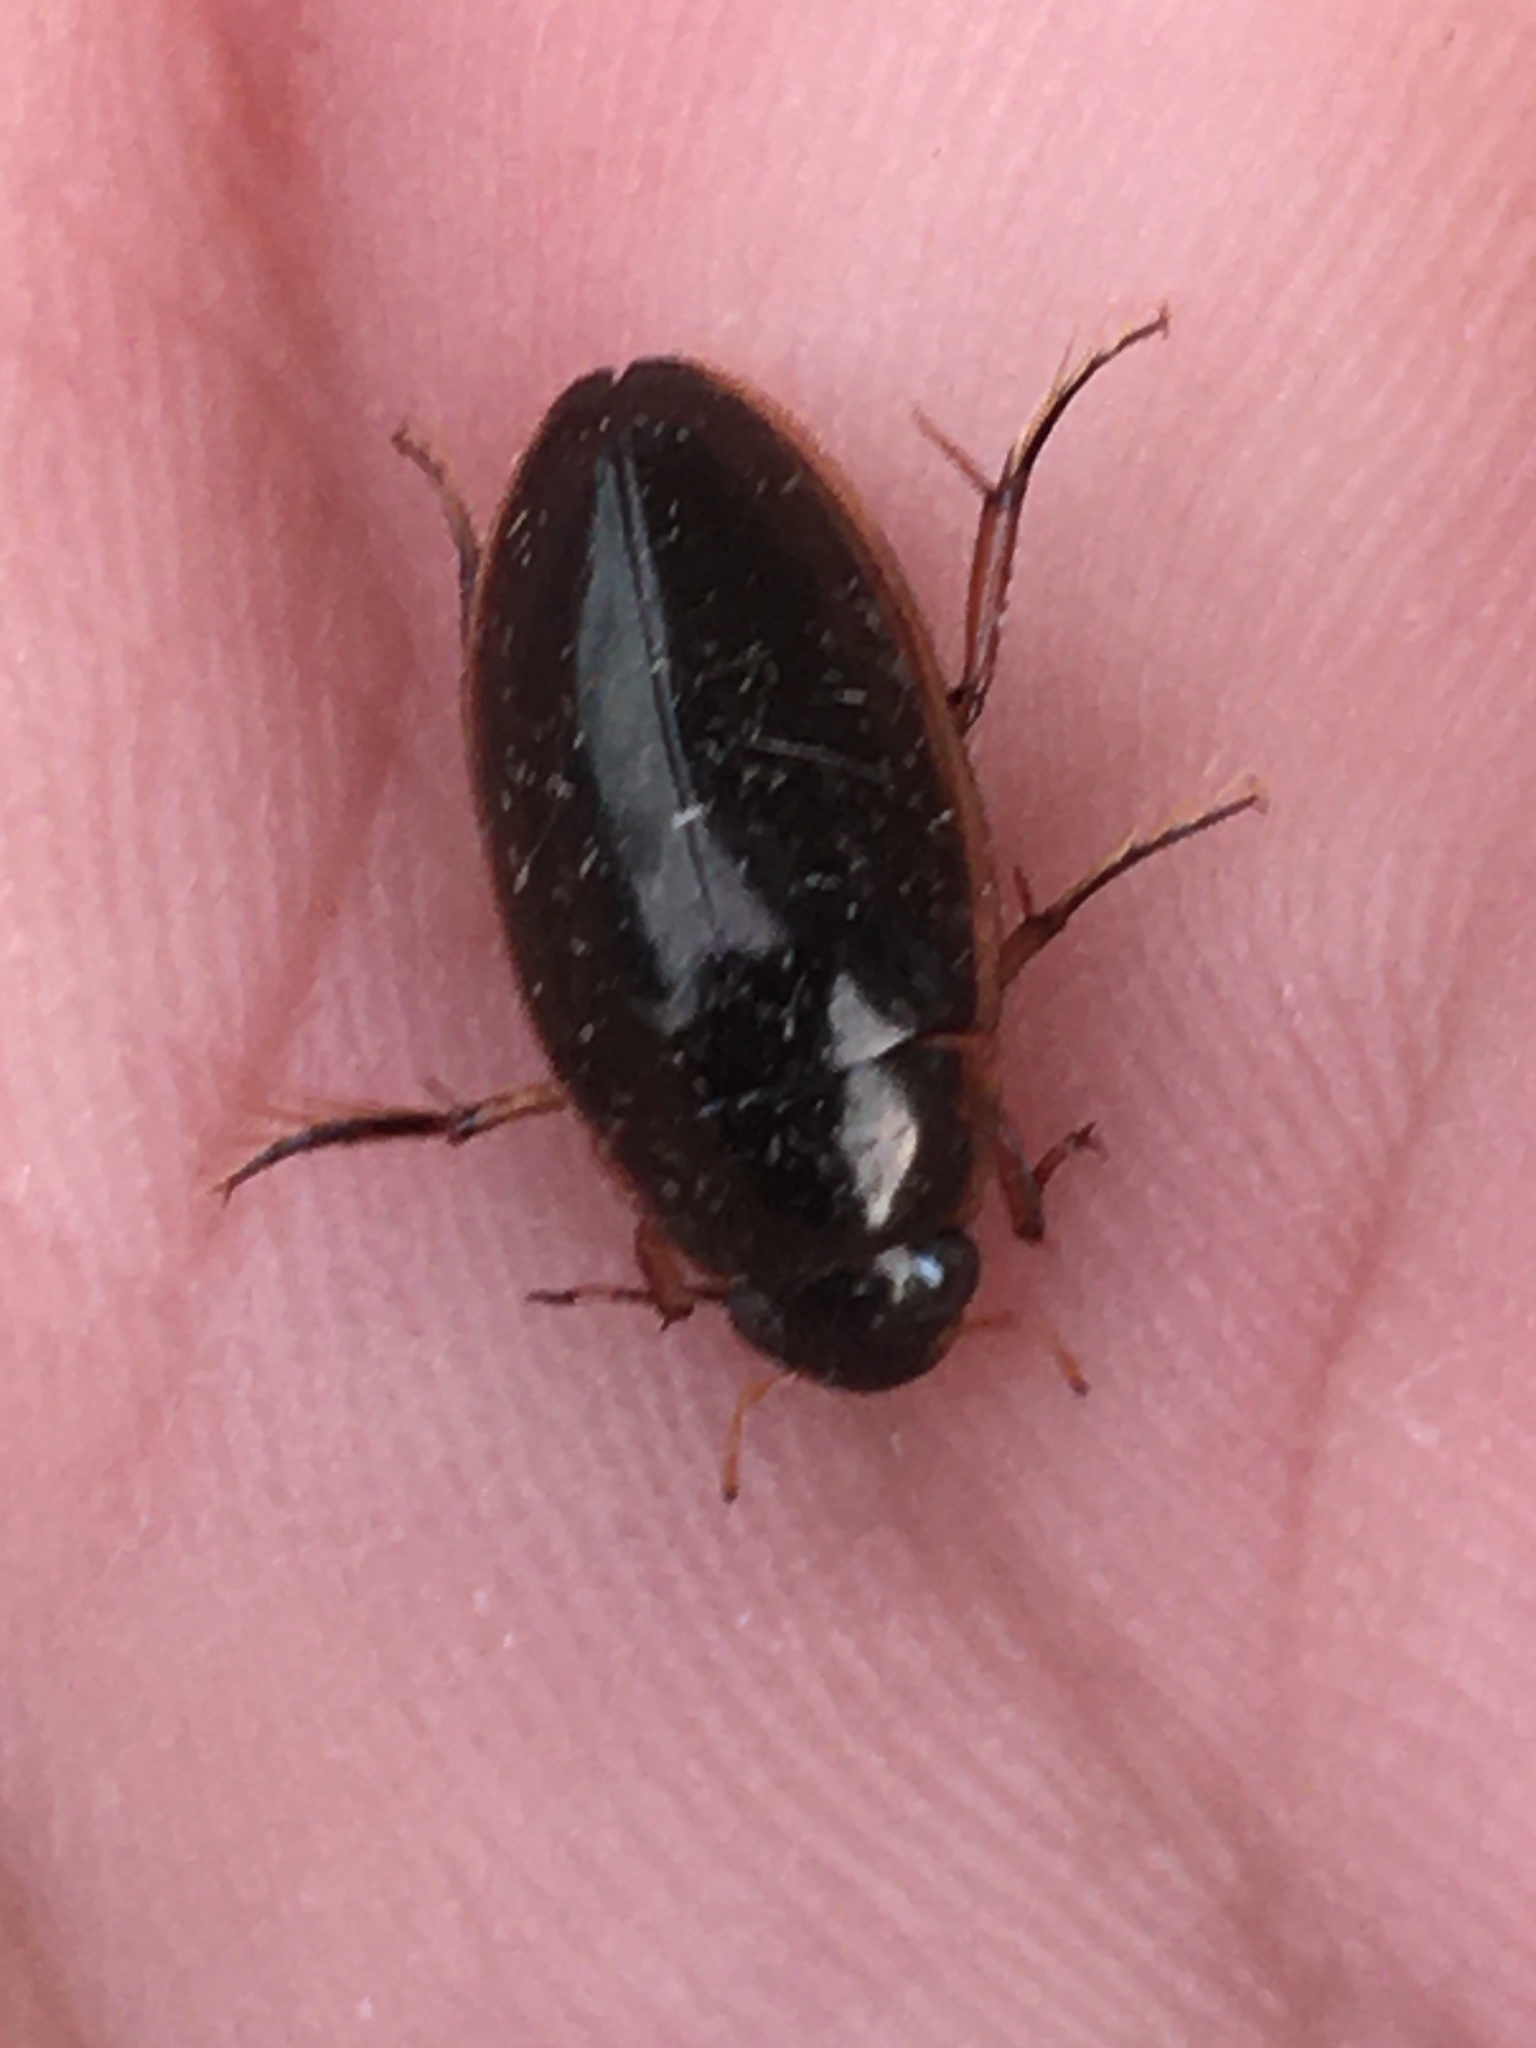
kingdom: Animalia
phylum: Arthropoda
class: Insecta
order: Coleoptera
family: Hydrophilidae
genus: Tropisternus
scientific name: Tropisternus lateralis
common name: Lateral-banded water scavenger beetle
